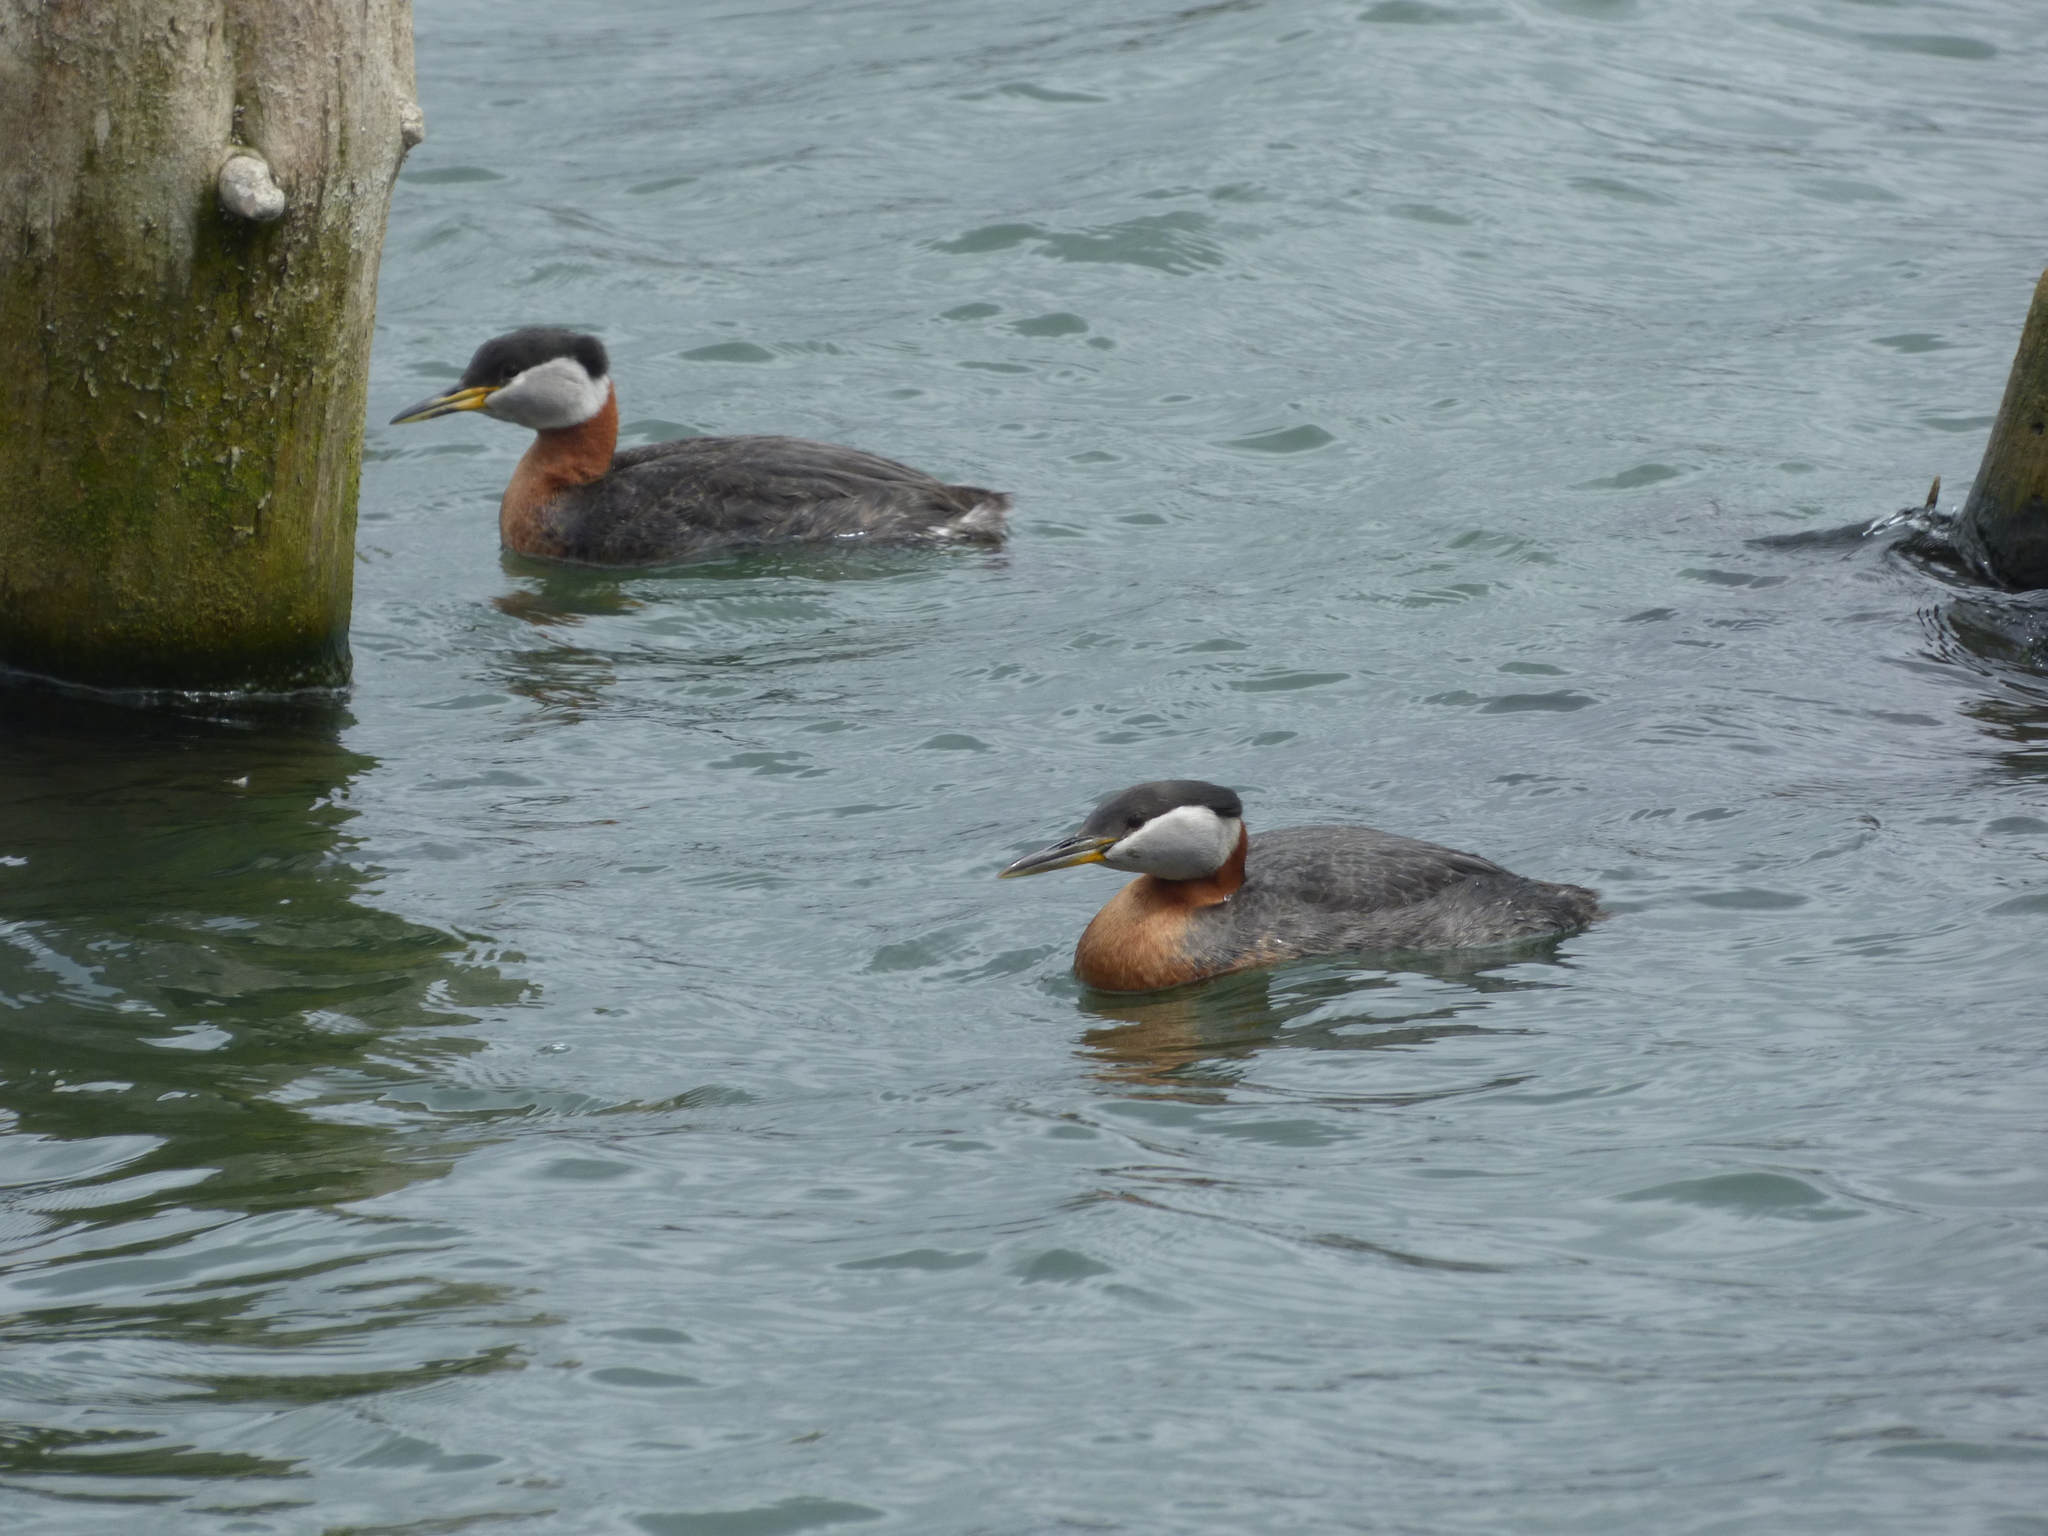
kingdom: Animalia
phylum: Chordata
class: Aves
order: Podicipediformes
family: Podicipedidae
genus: Podiceps
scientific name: Podiceps grisegena
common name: Red-necked grebe
